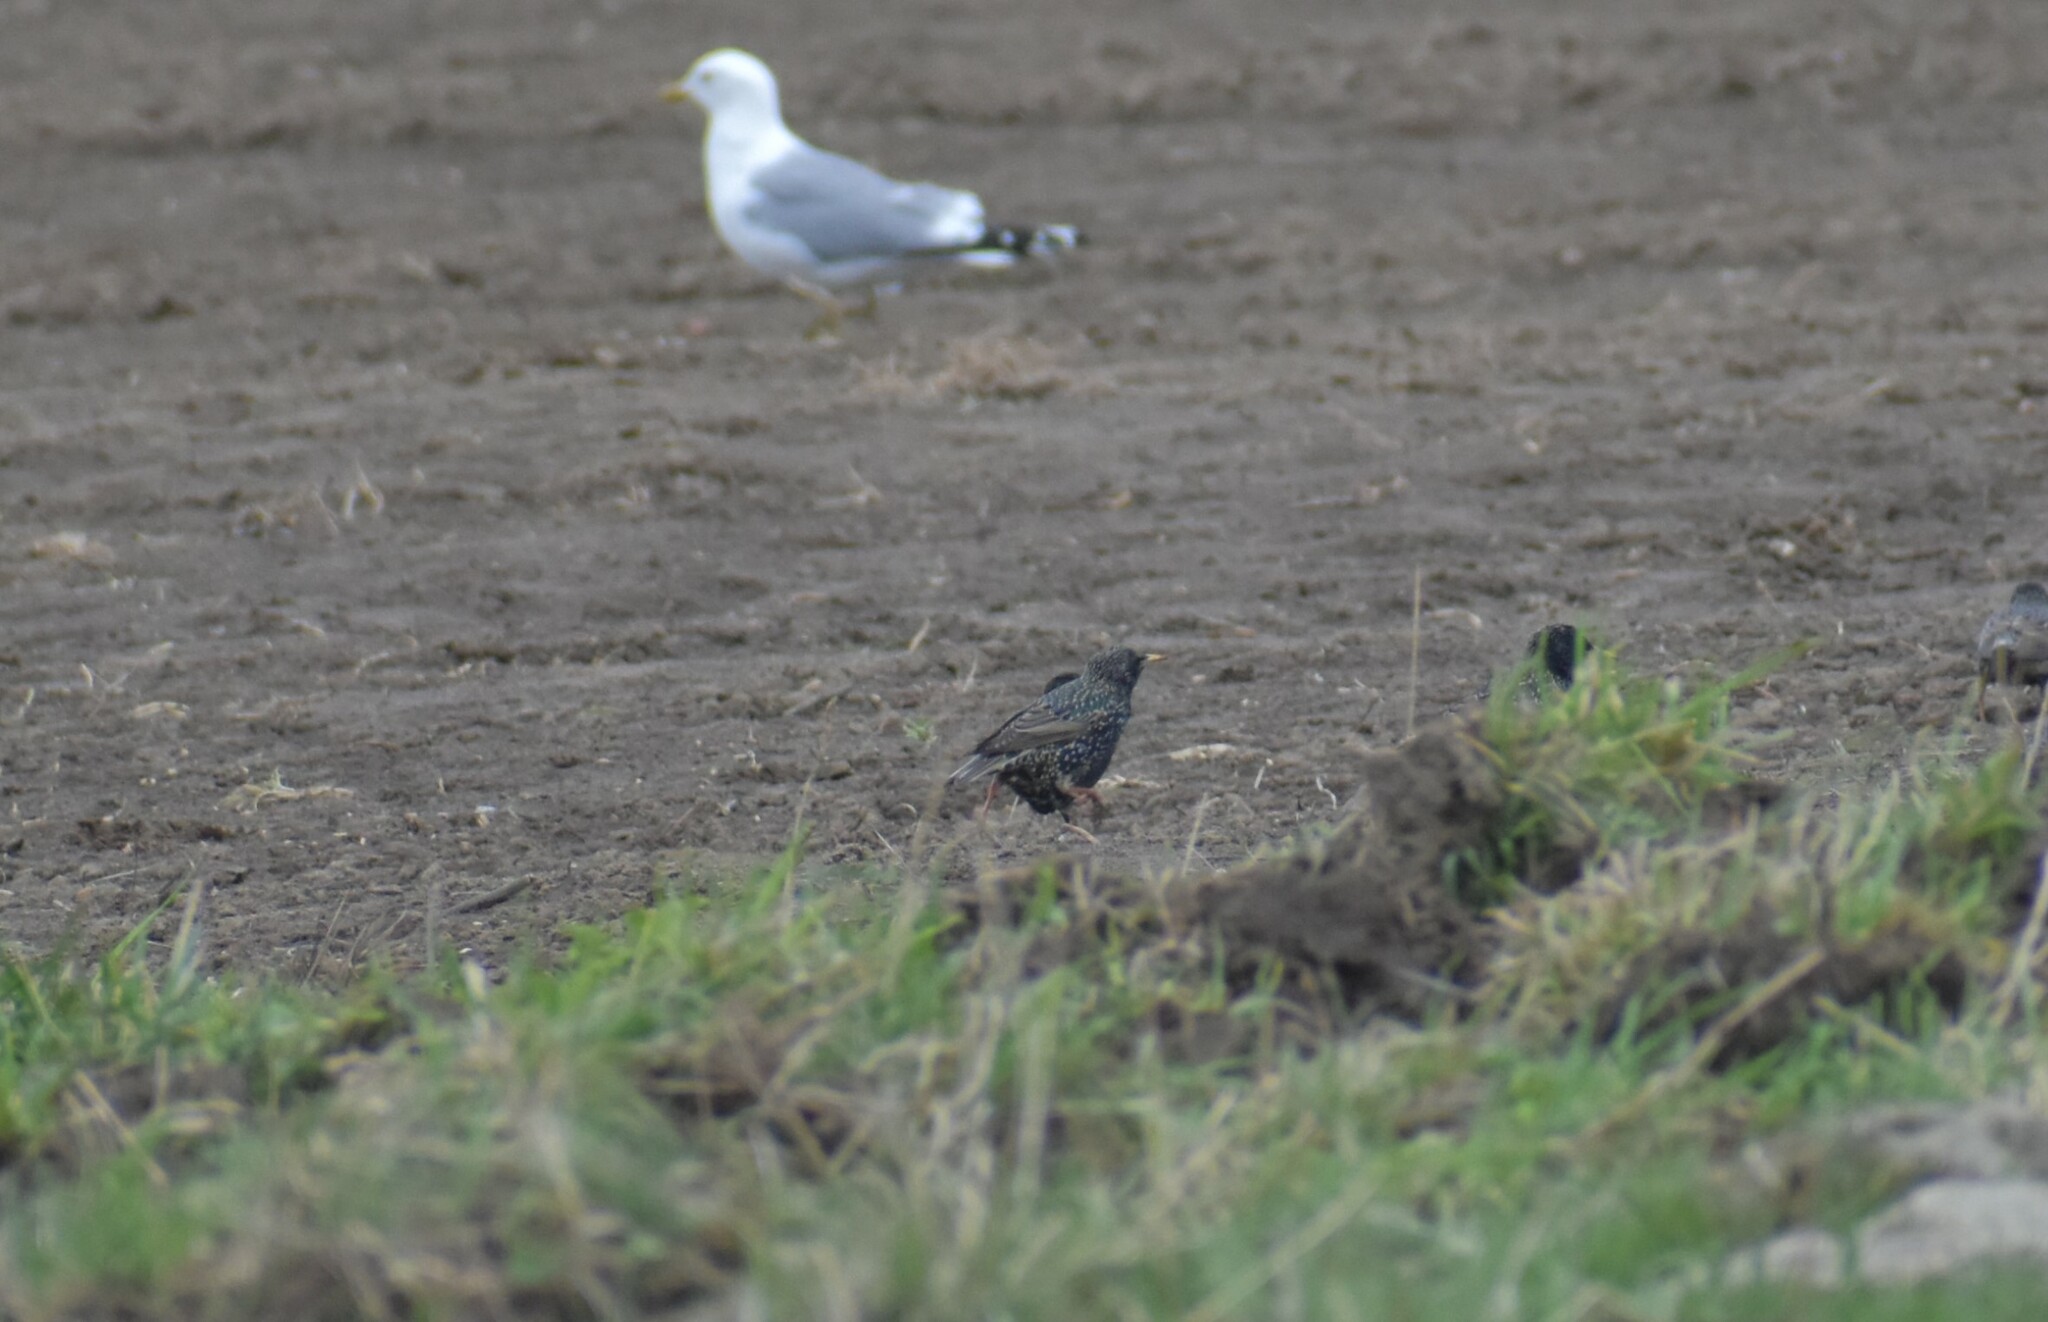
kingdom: Animalia
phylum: Chordata
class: Aves
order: Passeriformes
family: Sturnidae
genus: Sturnus
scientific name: Sturnus vulgaris
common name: Common starling
